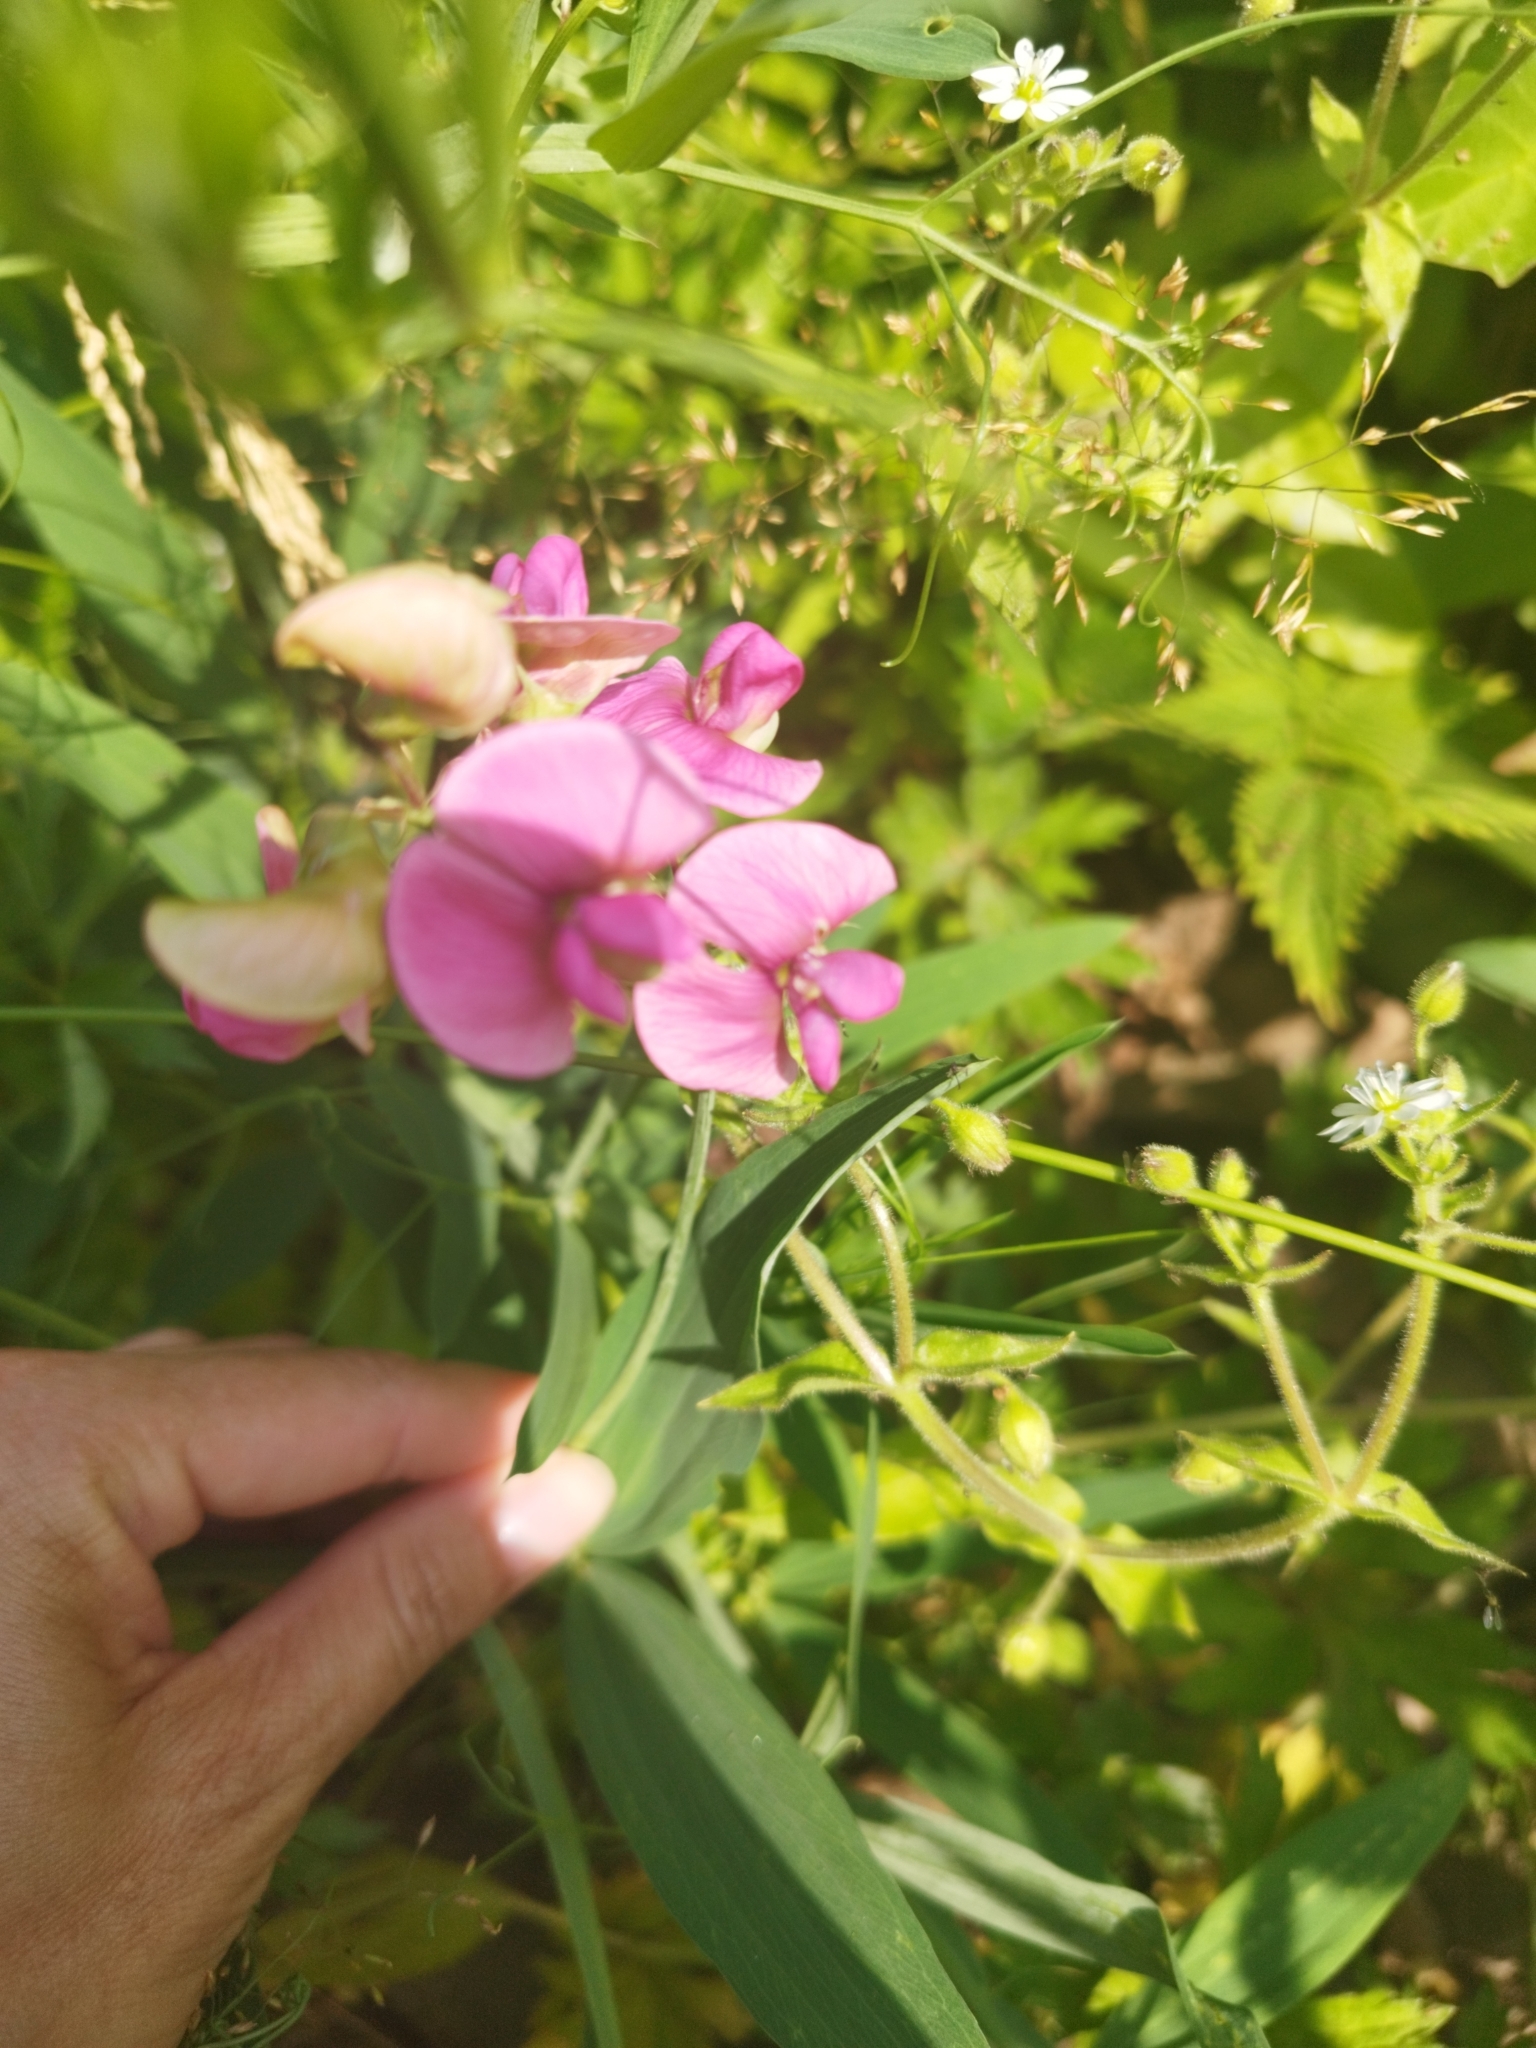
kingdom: Plantae
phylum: Tracheophyta
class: Magnoliopsida
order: Fabales
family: Fabaceae
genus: Lathyrus
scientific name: Lathyrus sylvestris
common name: Flat pea
